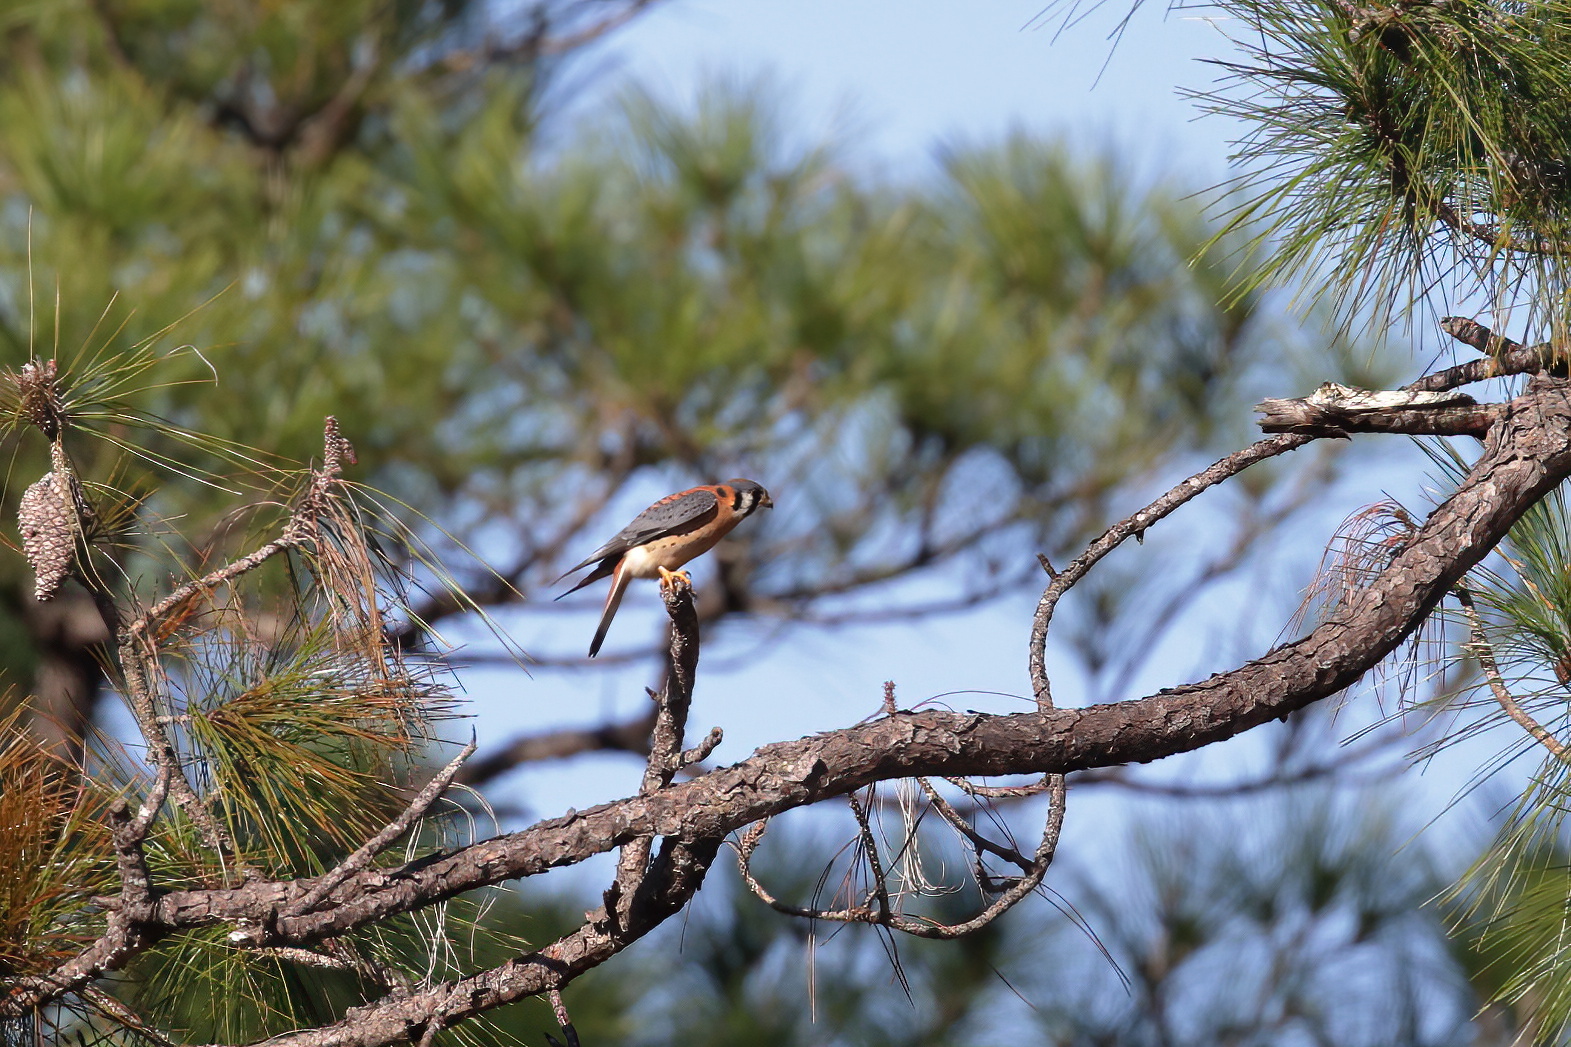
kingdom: Animalia
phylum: Chordata
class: Aves
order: Falconiformes
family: Falconidae
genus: Falco
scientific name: Falco sparverius
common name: American kestrel
